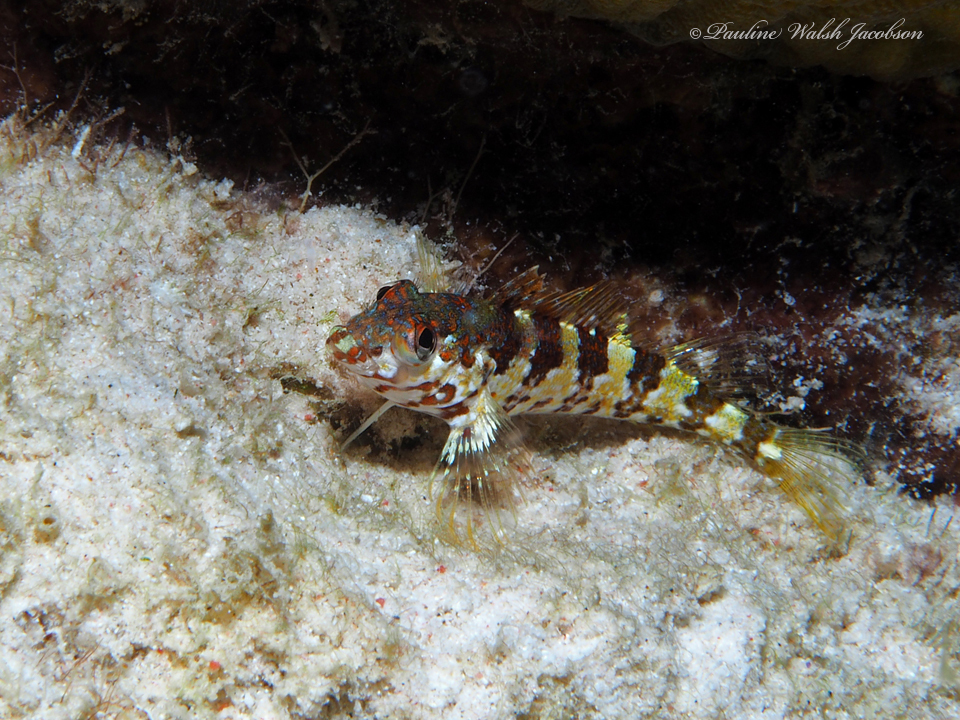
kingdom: Animalia
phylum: Chordata
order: Perciformes
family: Labrisomidae
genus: Malacoctenus
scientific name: Malacoctenus triangulatus
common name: Saddled blenny
